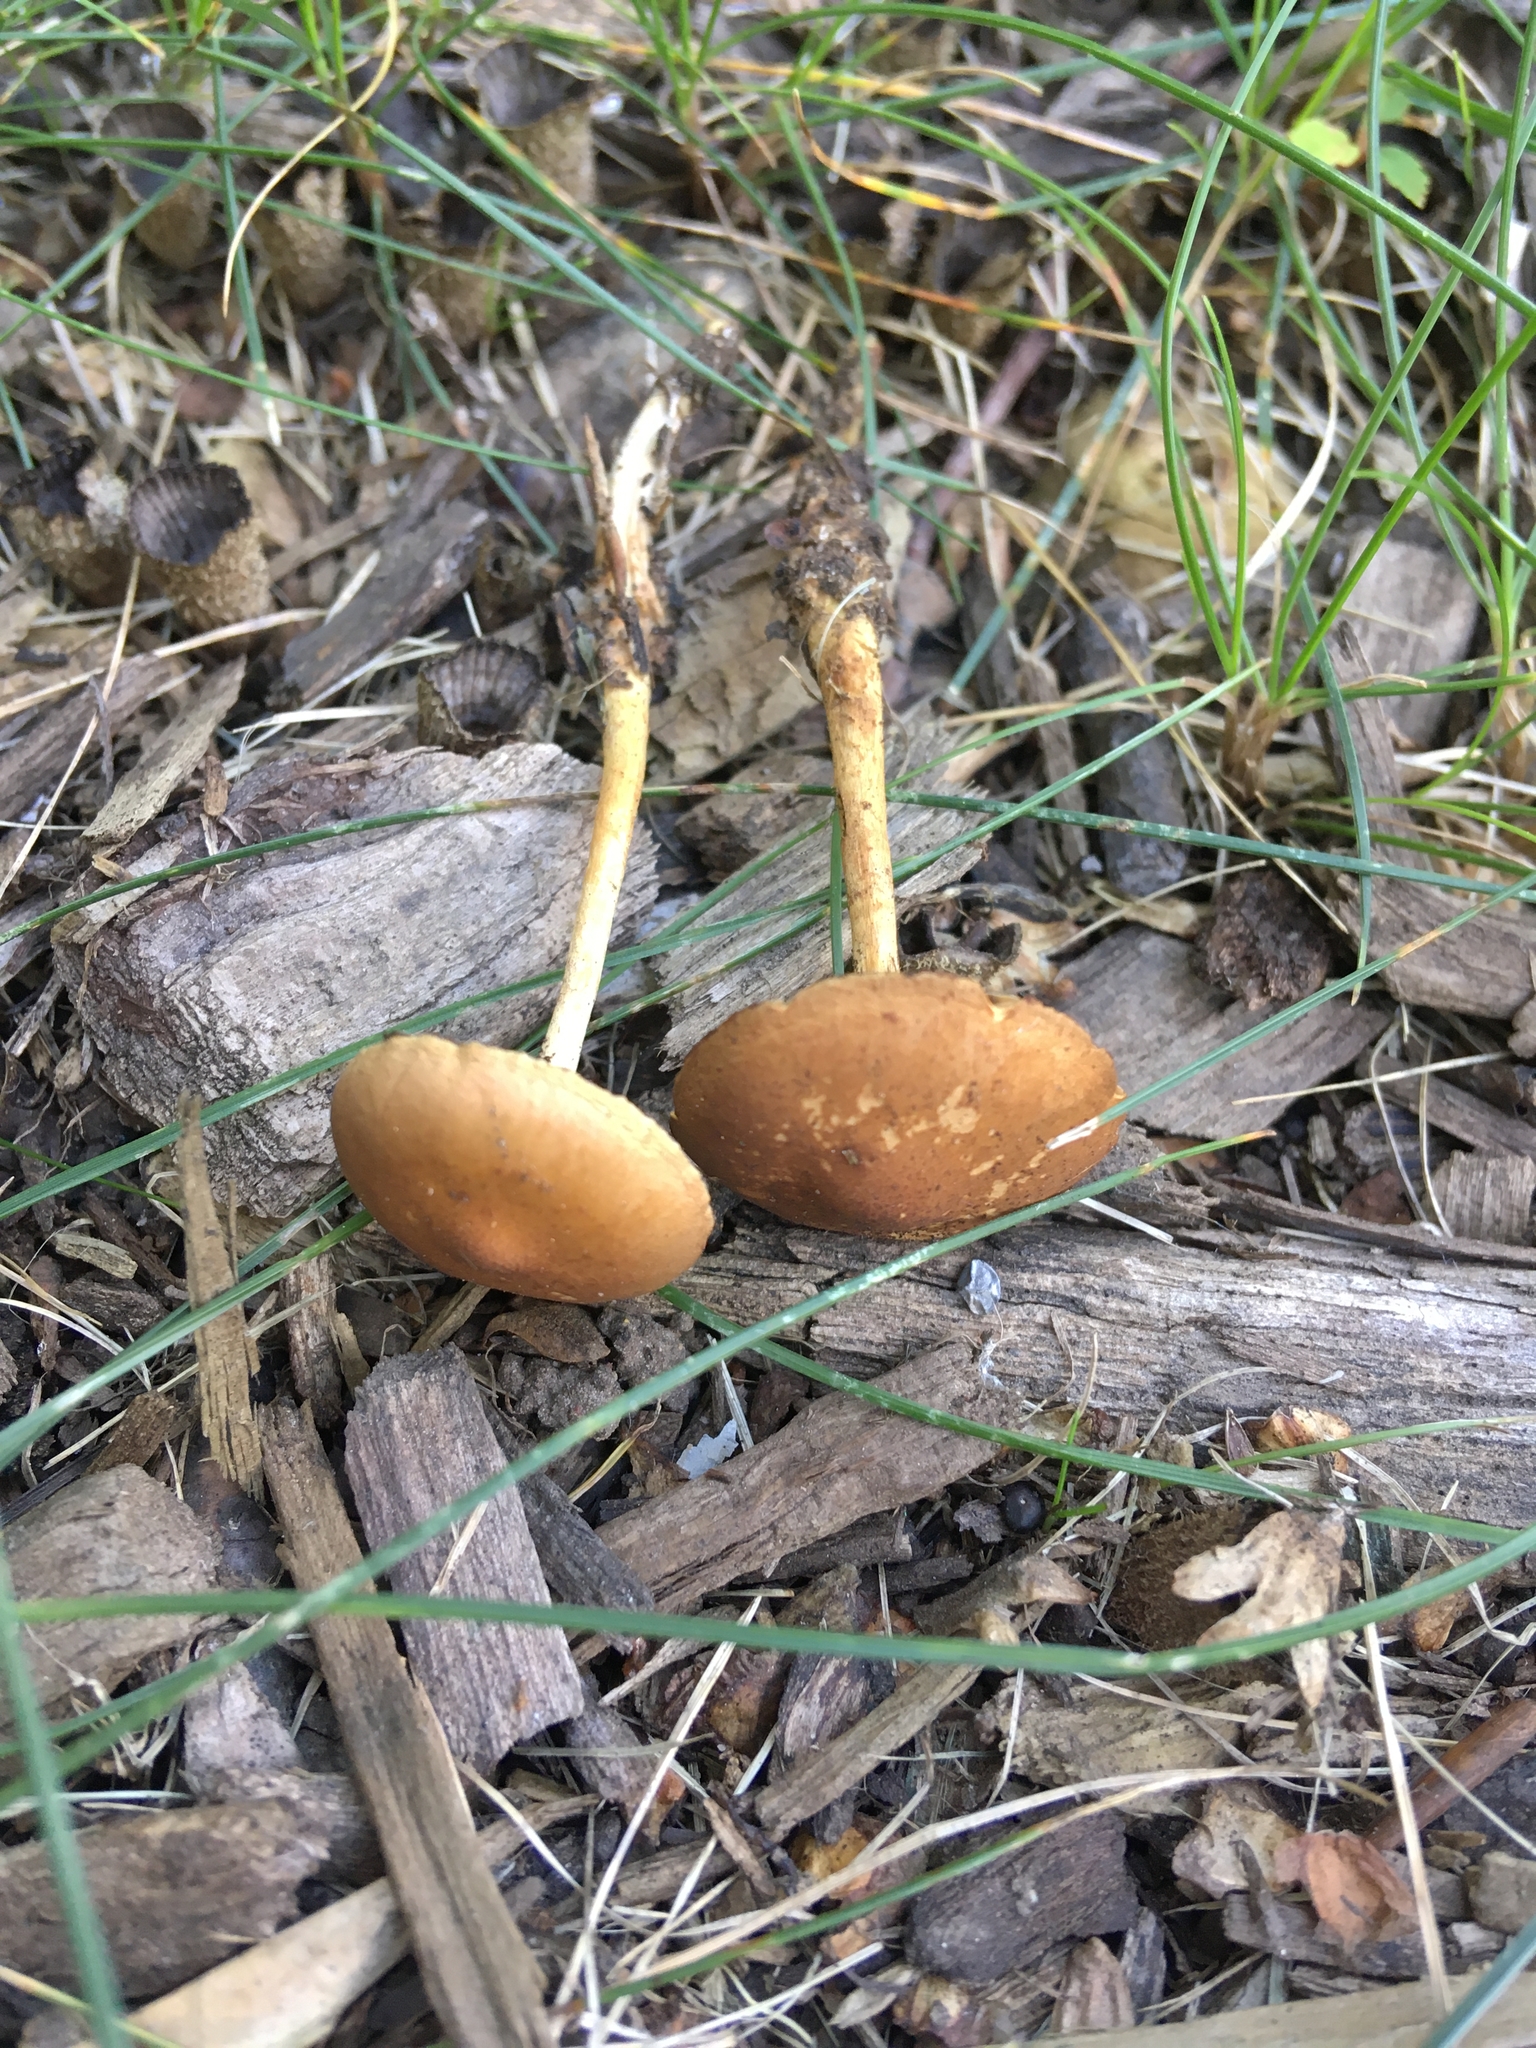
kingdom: Fungi
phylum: Basidiomycota
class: Agaricomycetes
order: Agaricales
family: Hymenogastraceae
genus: Psilocybe
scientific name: Psilocybe tuberifera
